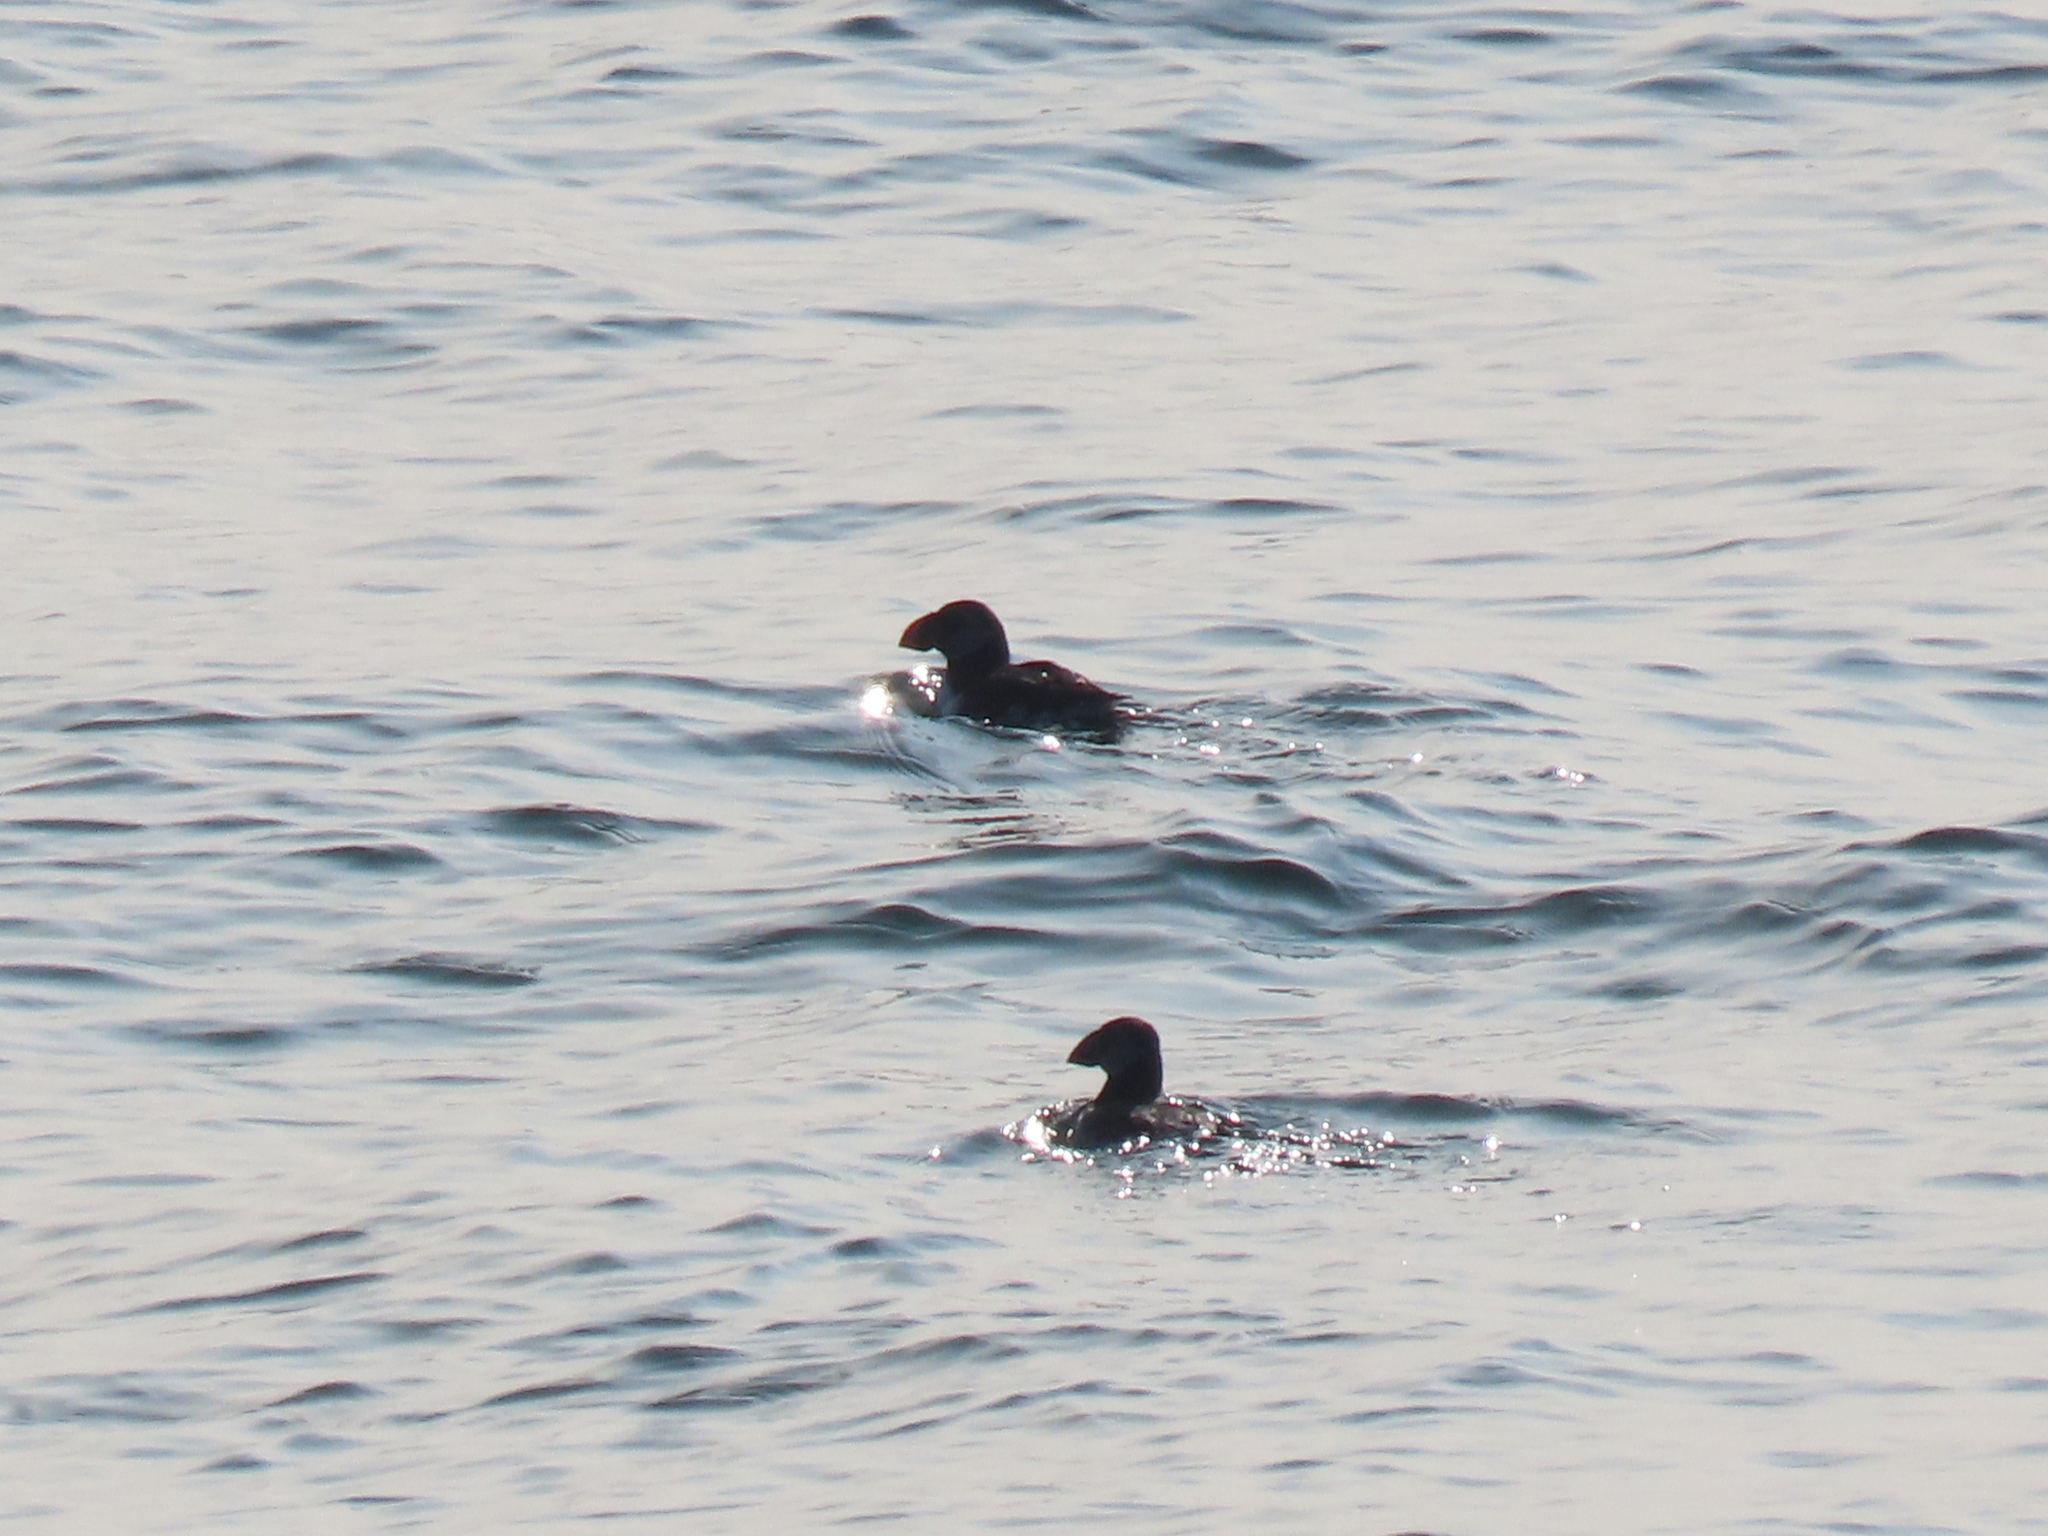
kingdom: Animalia
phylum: Chordata
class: Aves
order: Charadriiformes
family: Alcidae
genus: Fratercula
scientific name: Fratercula arctica
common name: Atlantic puffin
